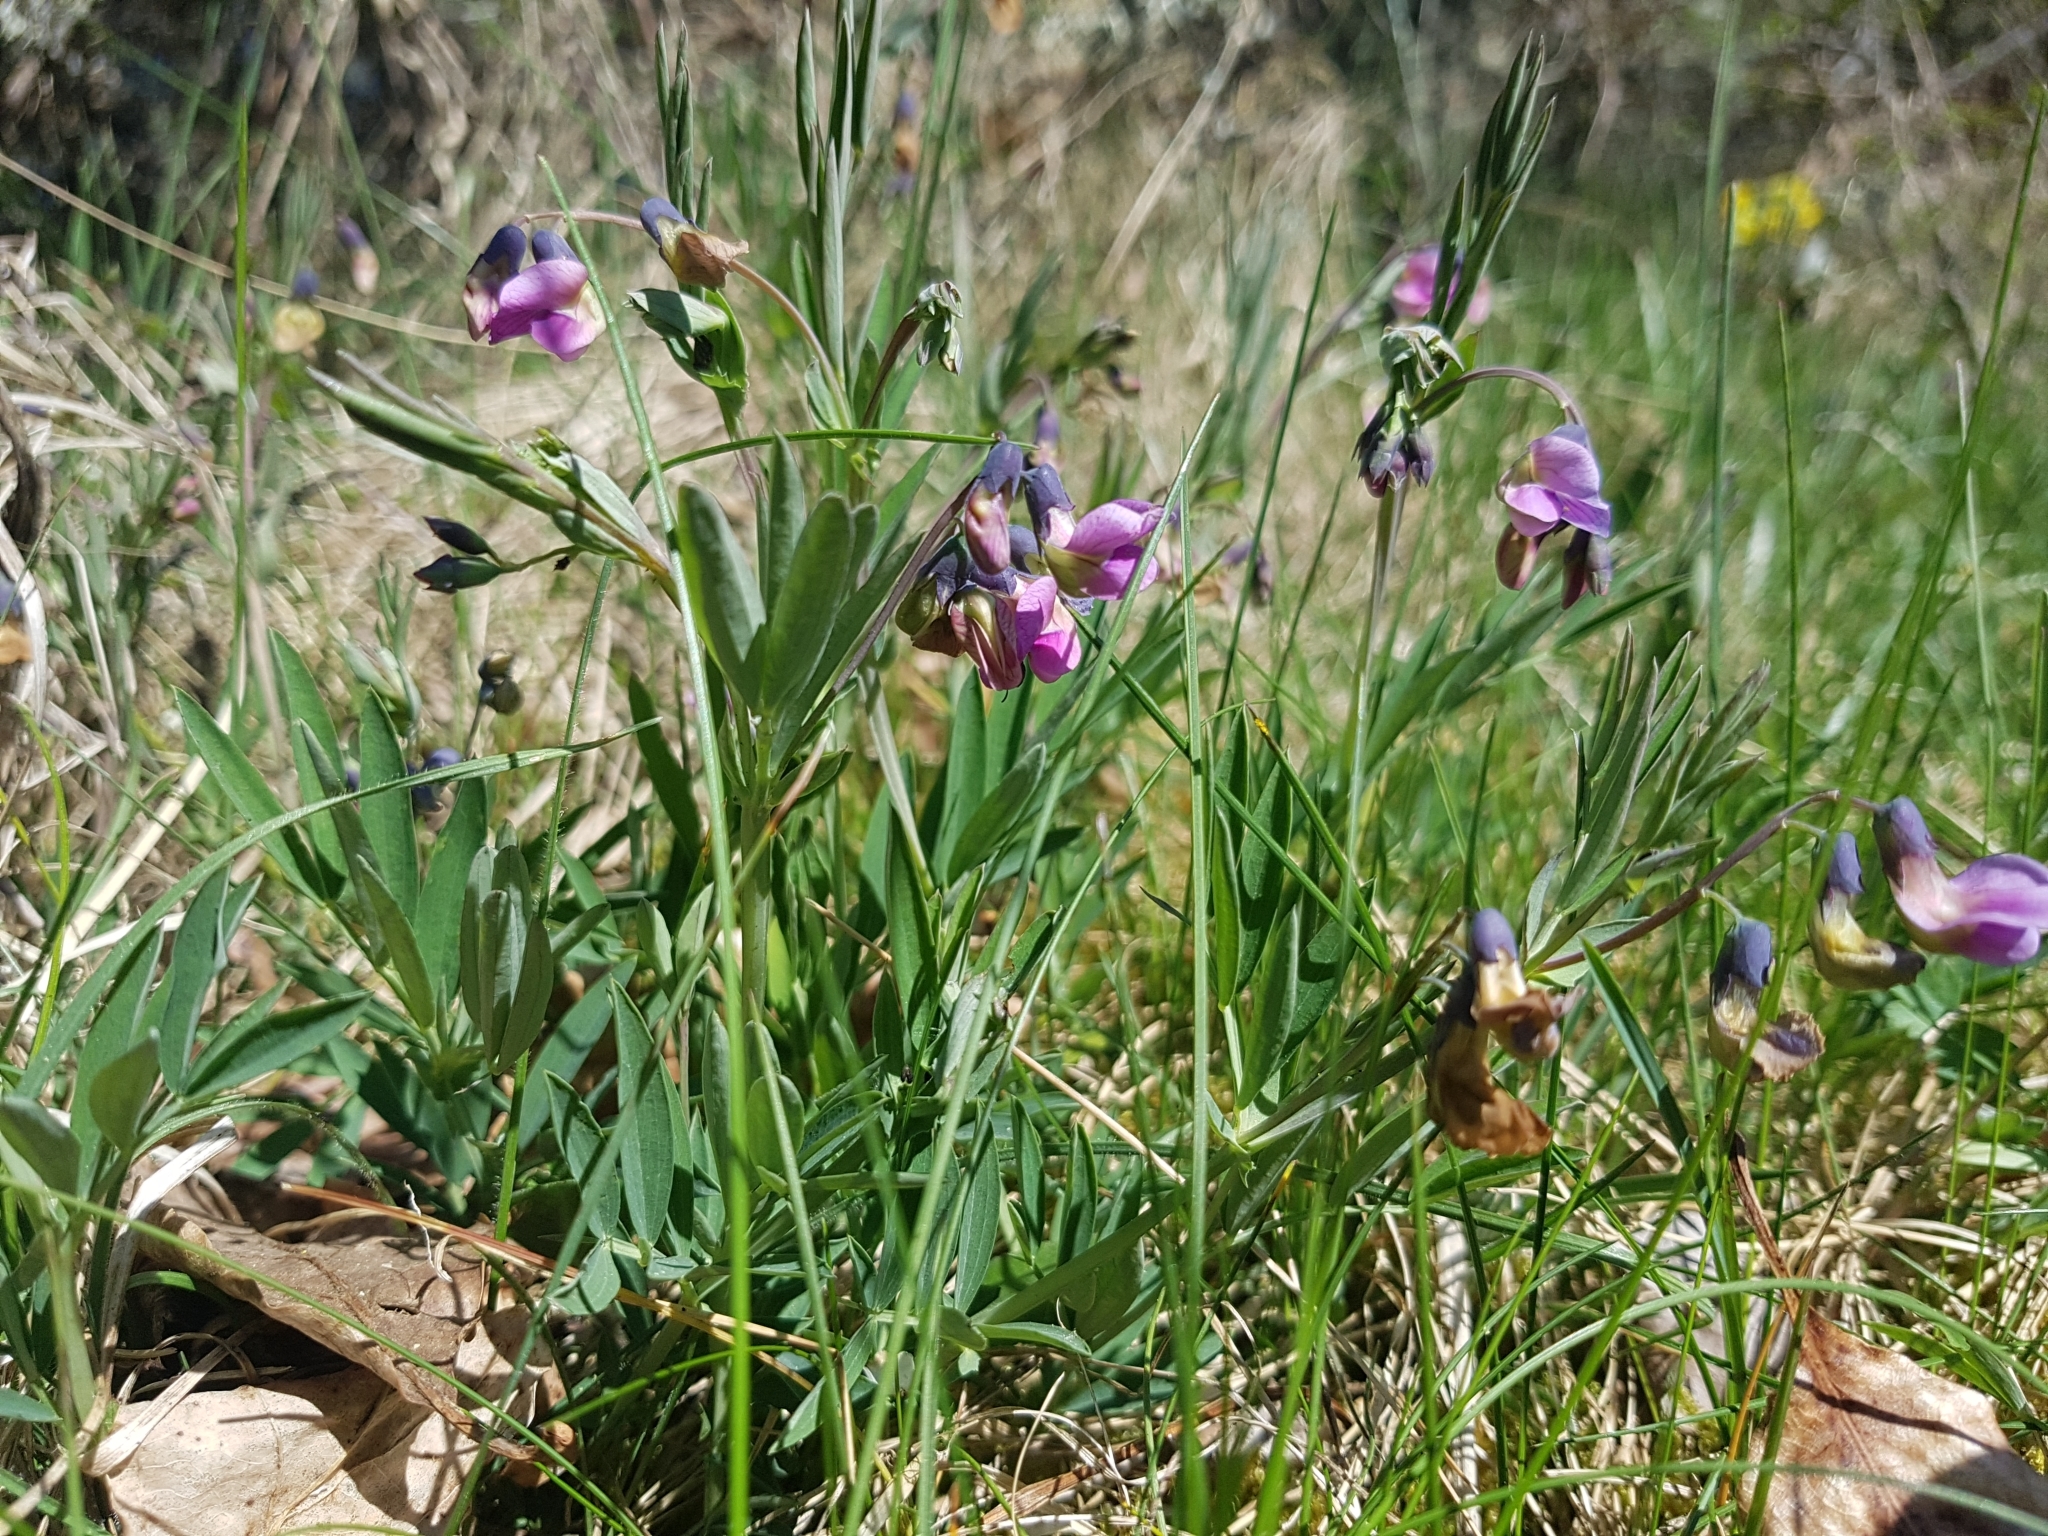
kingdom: Plantae
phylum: Tracheophyta
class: Magnoliopsida
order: Fabales
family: Fabaceae
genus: Lathyrus
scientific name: Lathyrus linifolius
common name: Bitter-vetch
